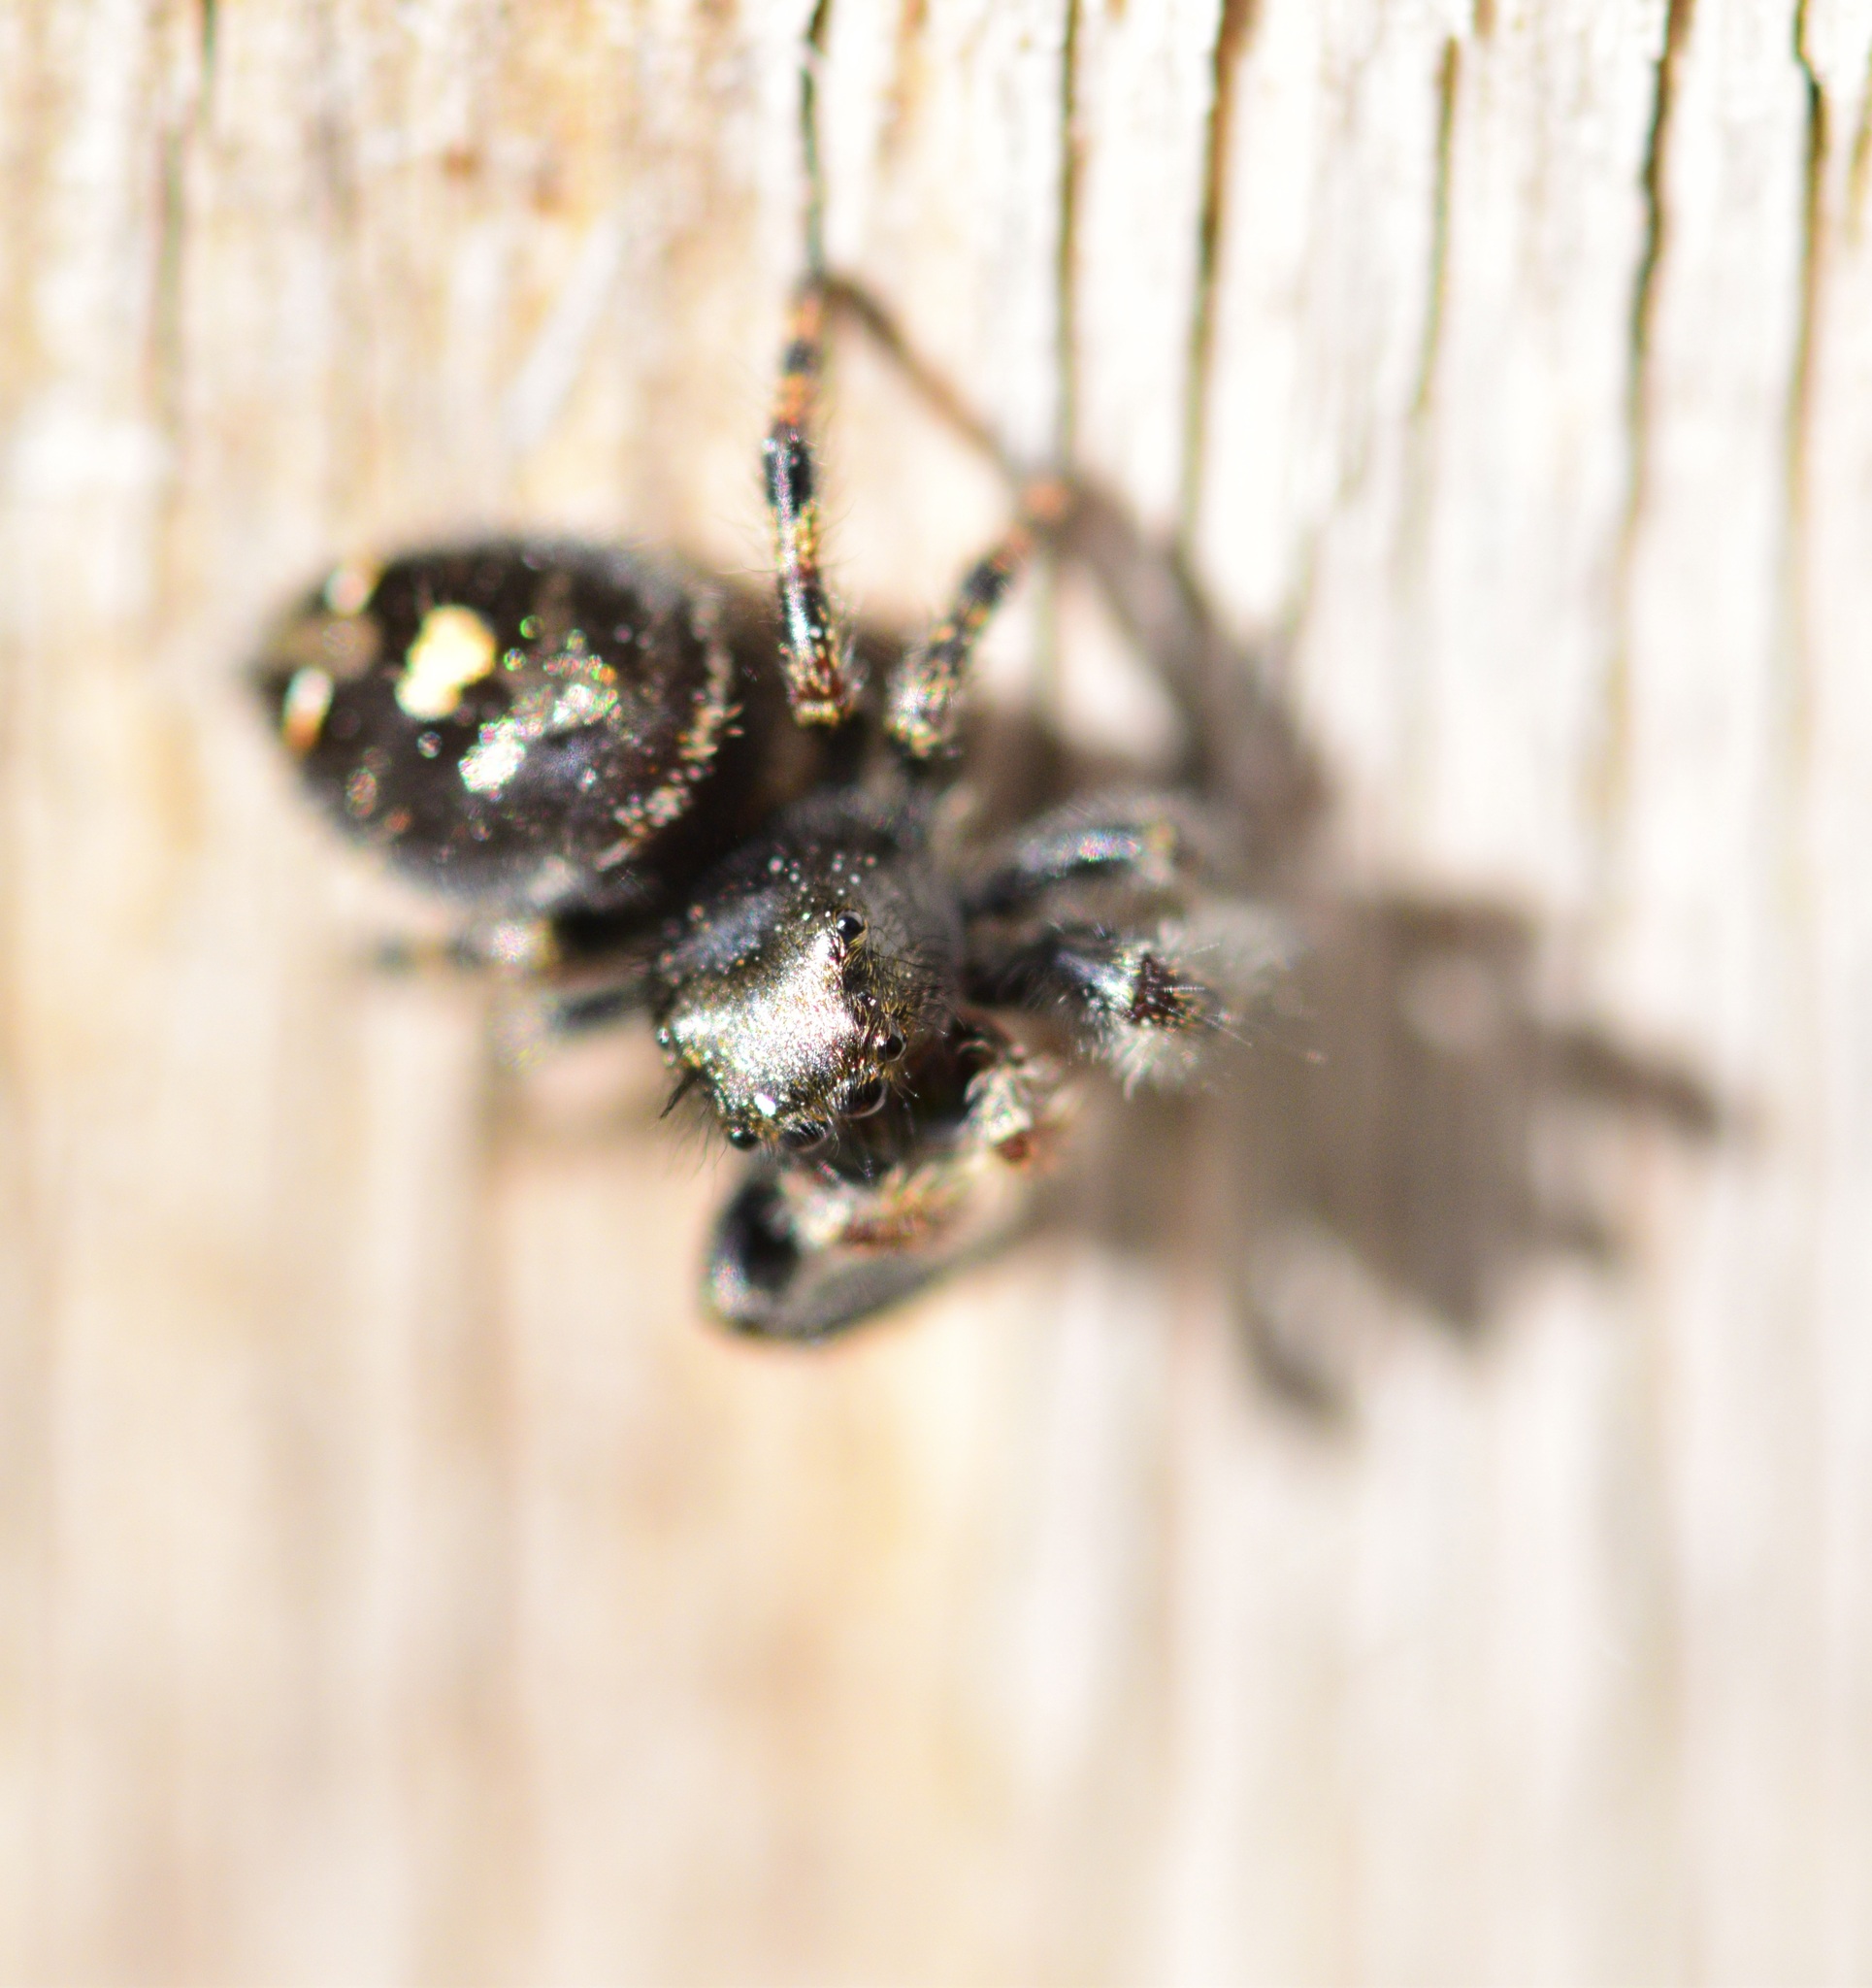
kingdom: Animalia
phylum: Arthropoda
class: Arachnida
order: Araneae
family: Salticidae
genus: Phidippus
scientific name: Phidippus audax
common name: Bold jumper
